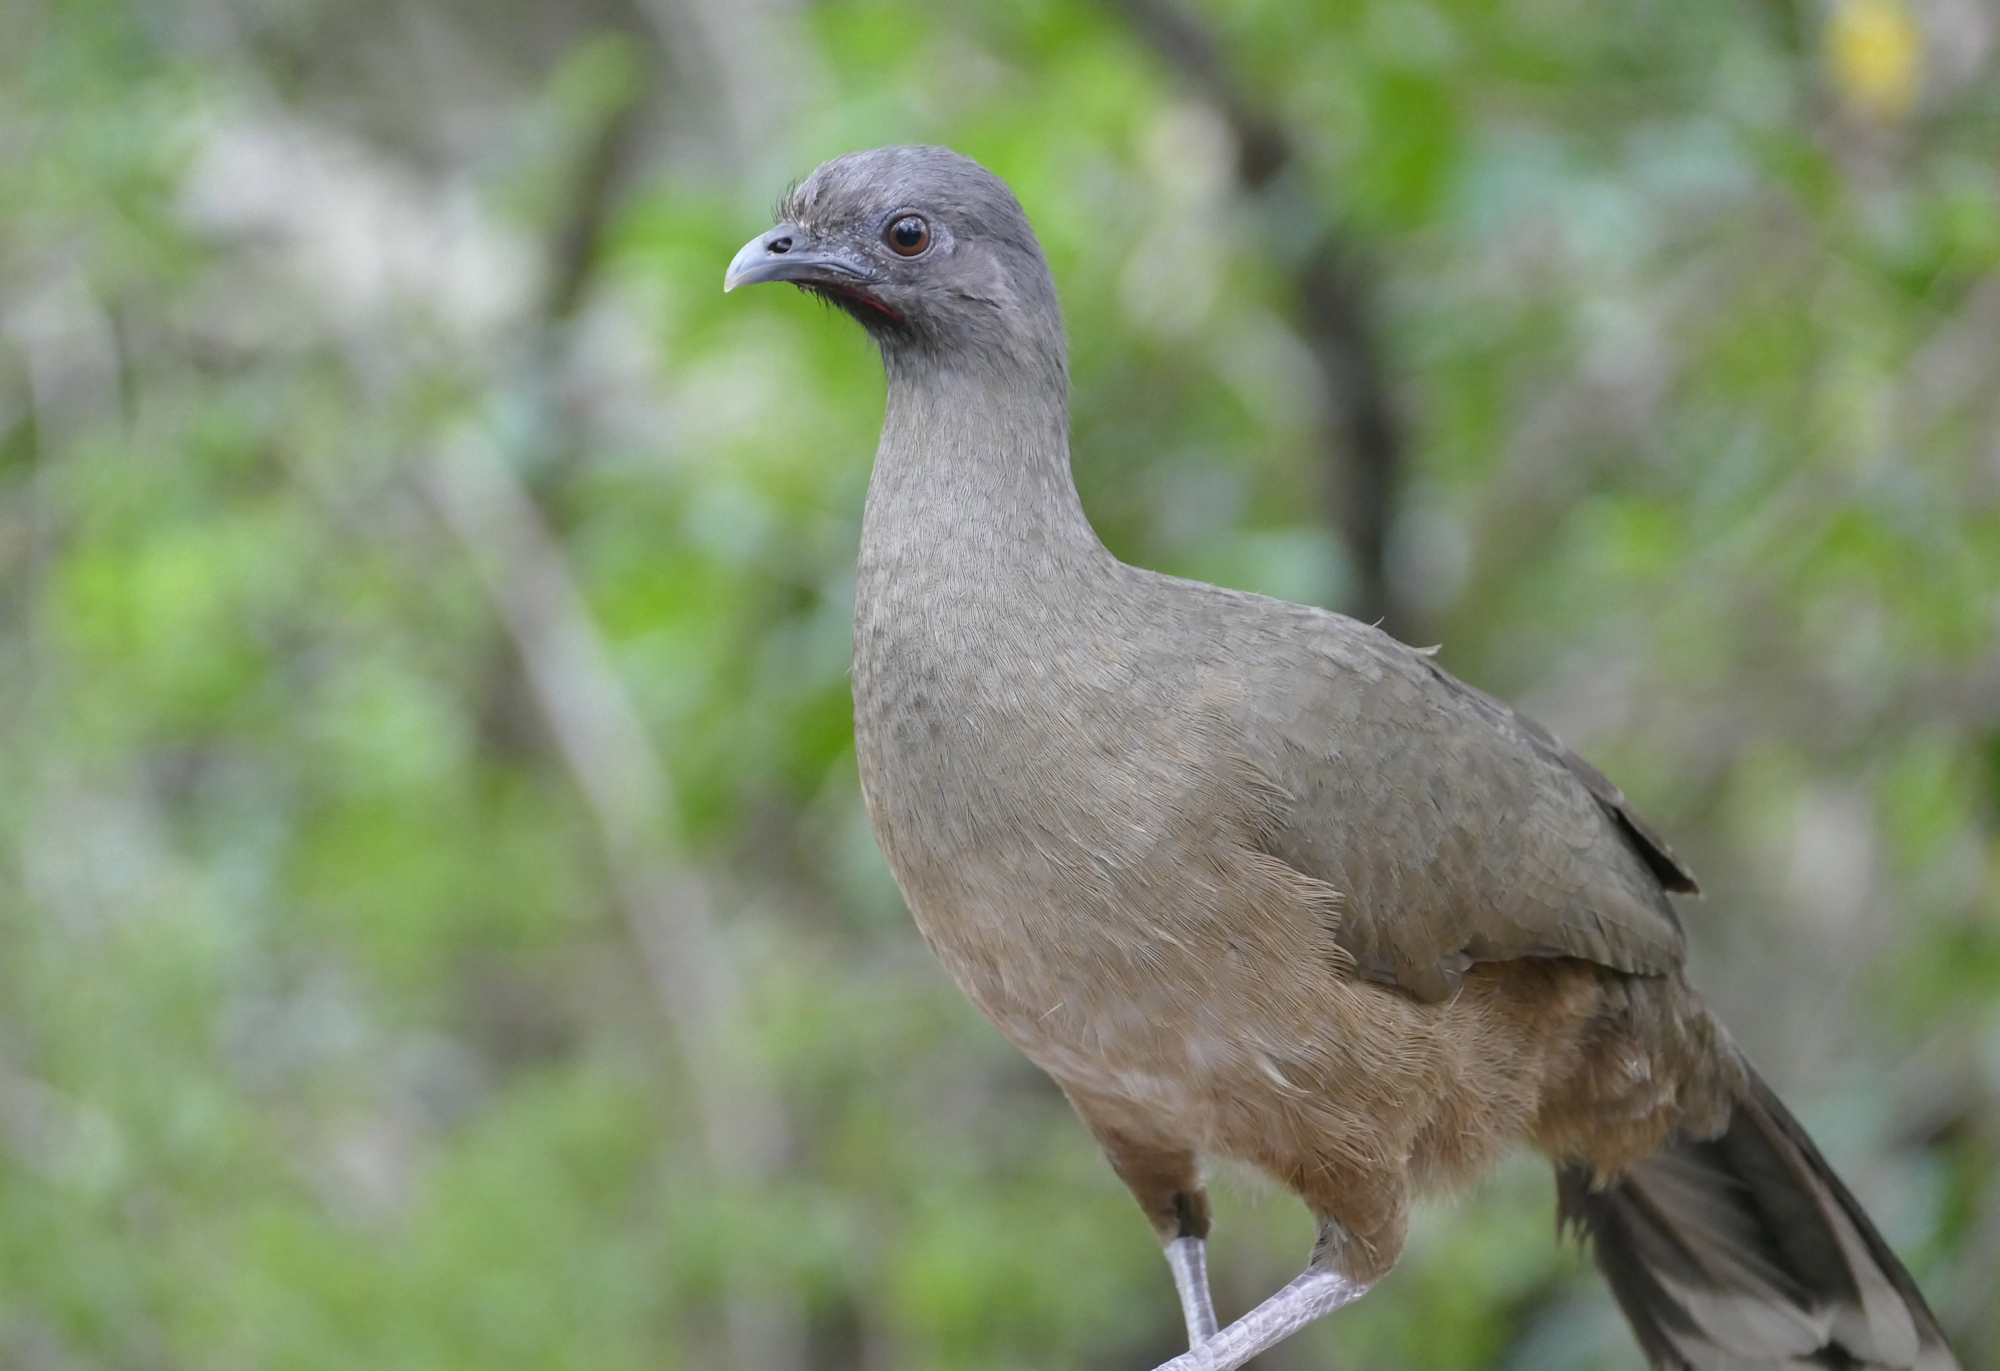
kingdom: Animalia
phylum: Chordata
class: Aves
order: Galliformes
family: Cracidae
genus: Ortalis
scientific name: Ortalis vetula
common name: Plain chachalaca
